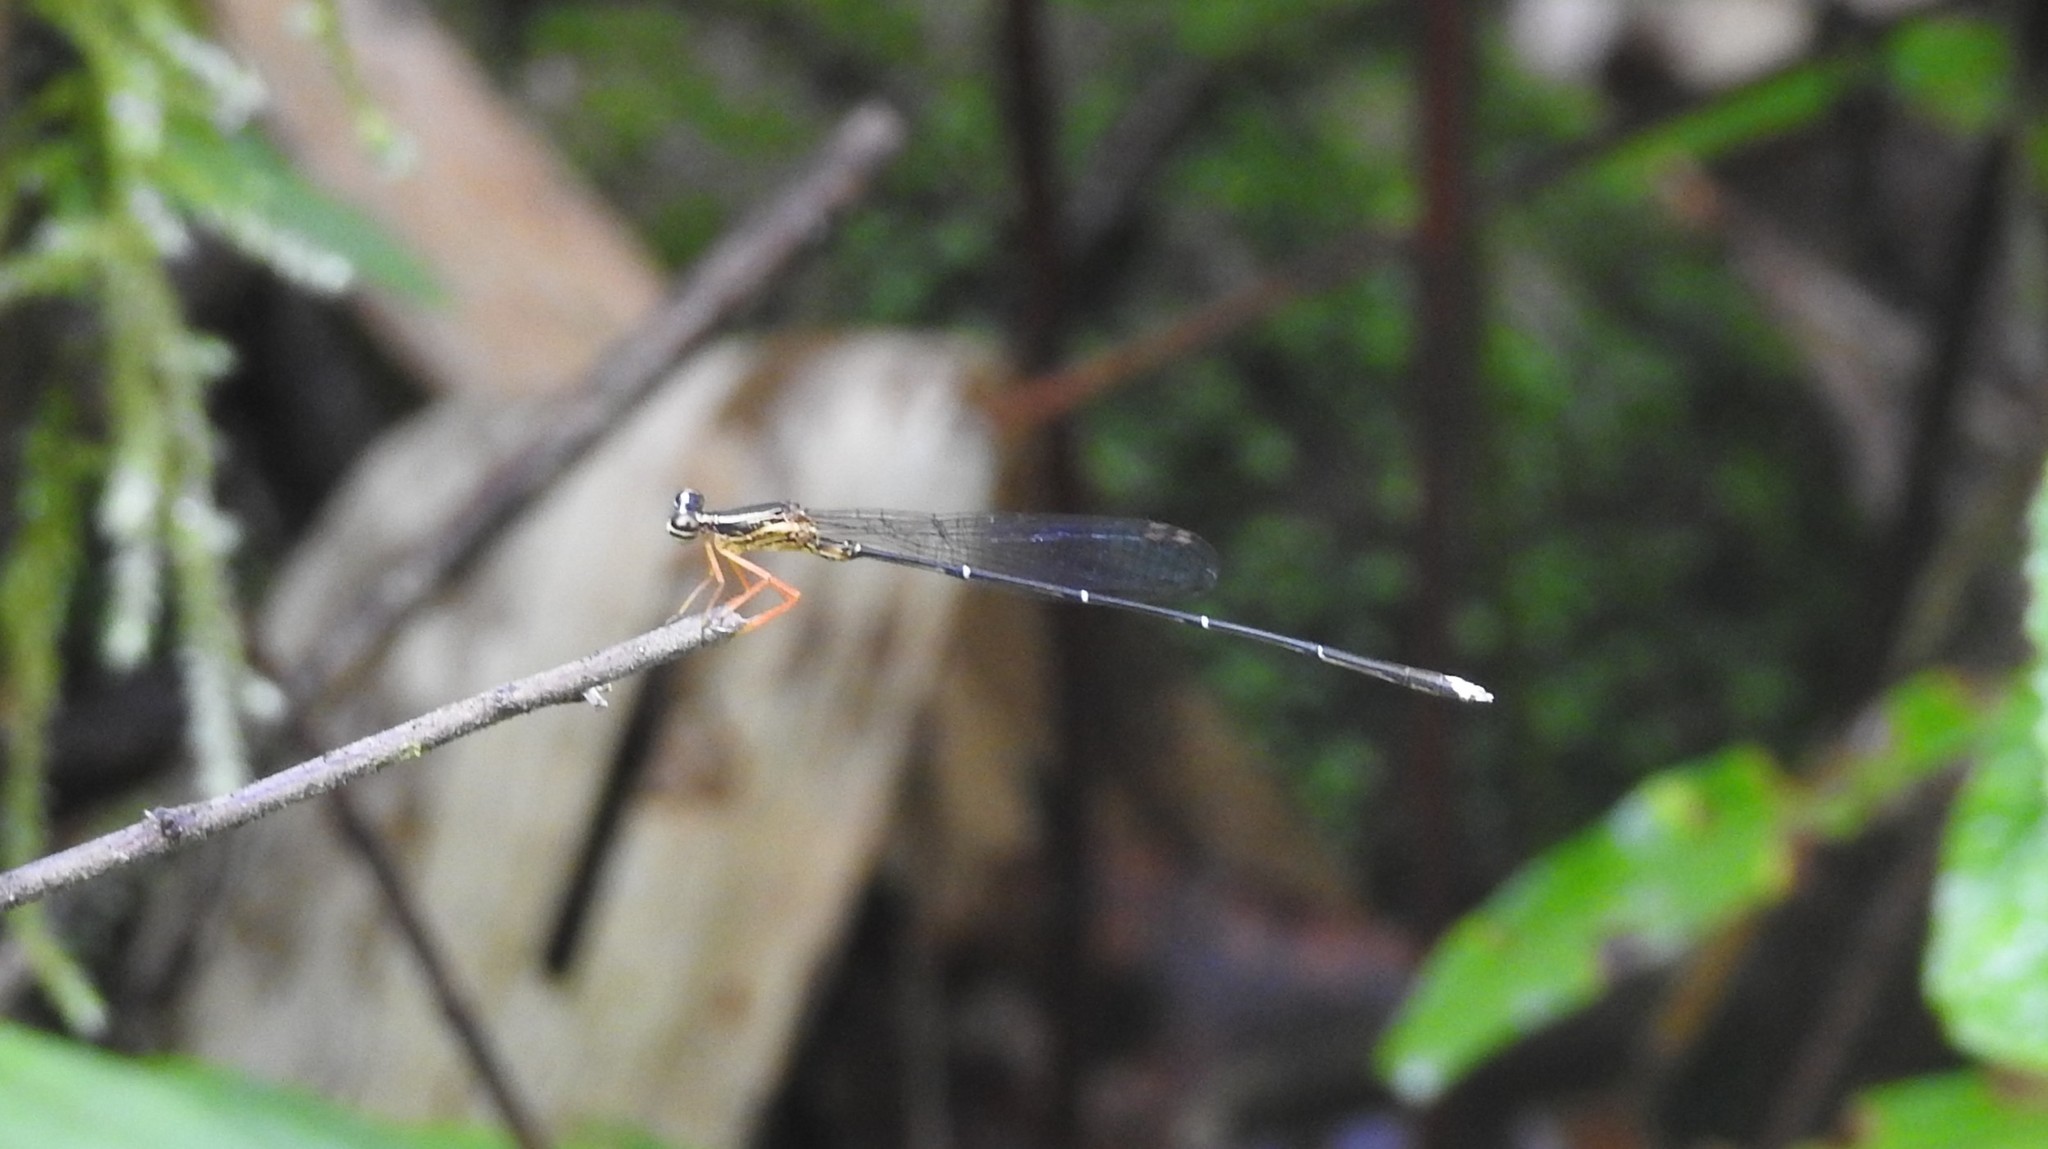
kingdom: Animalia
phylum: Arthropoda
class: Insecta
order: Odonata
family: Platycnemididae
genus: Copera
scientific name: Copera vittata
